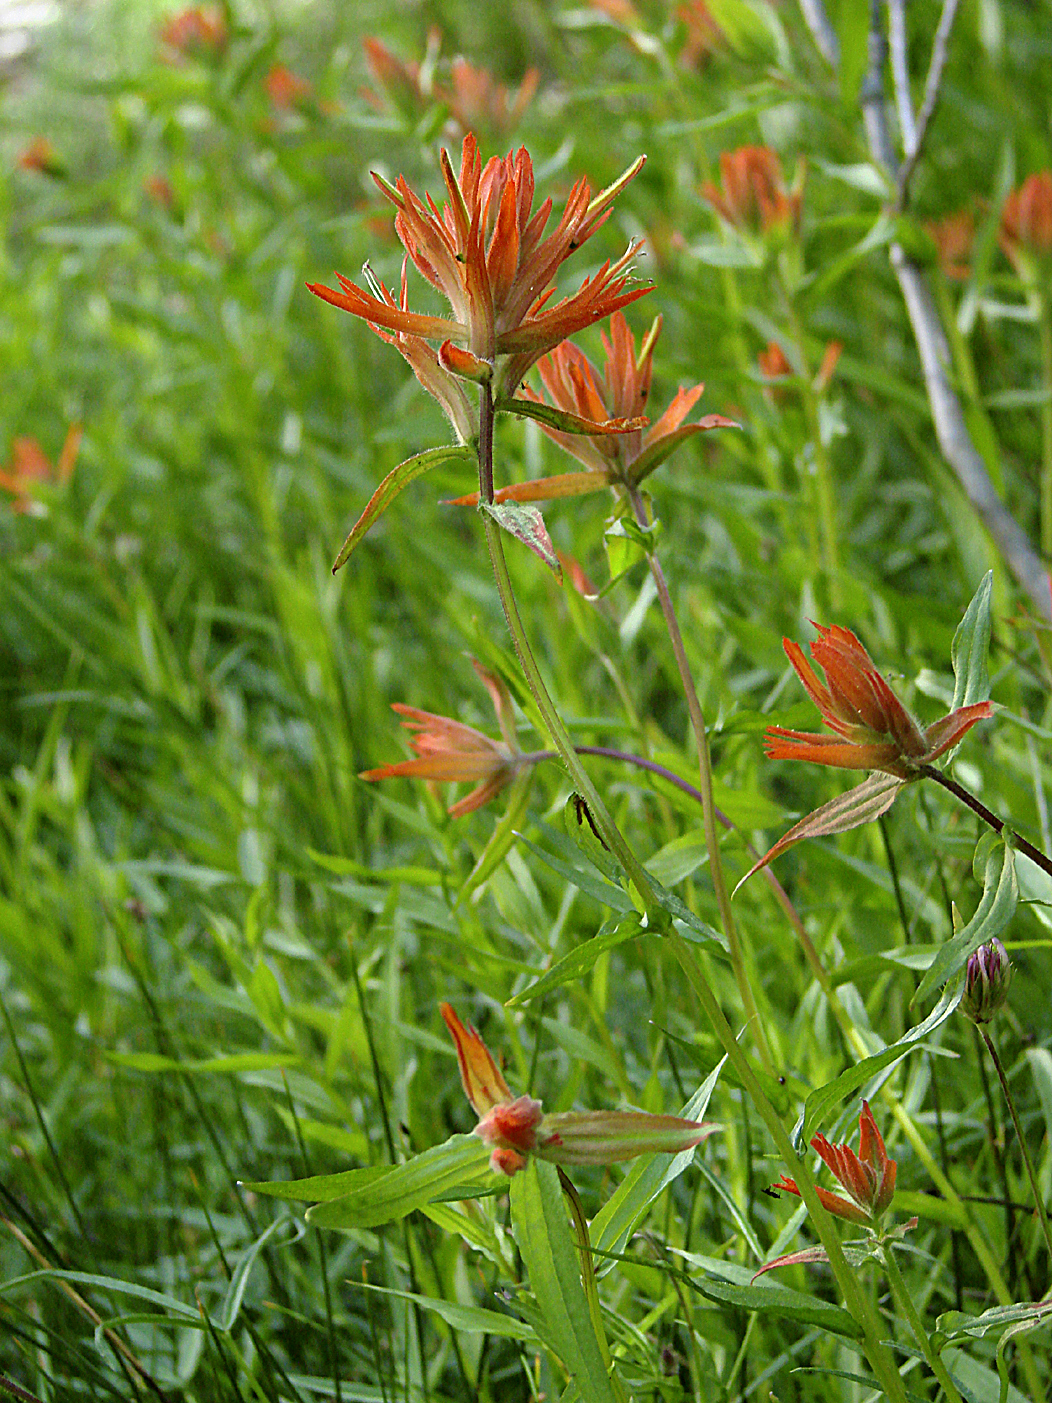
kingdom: Plantae
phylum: Tracheophyta
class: Magnoliopsida
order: Lamiales
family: Orobanchaceae
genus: Castilleja
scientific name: Castilleja miniata
